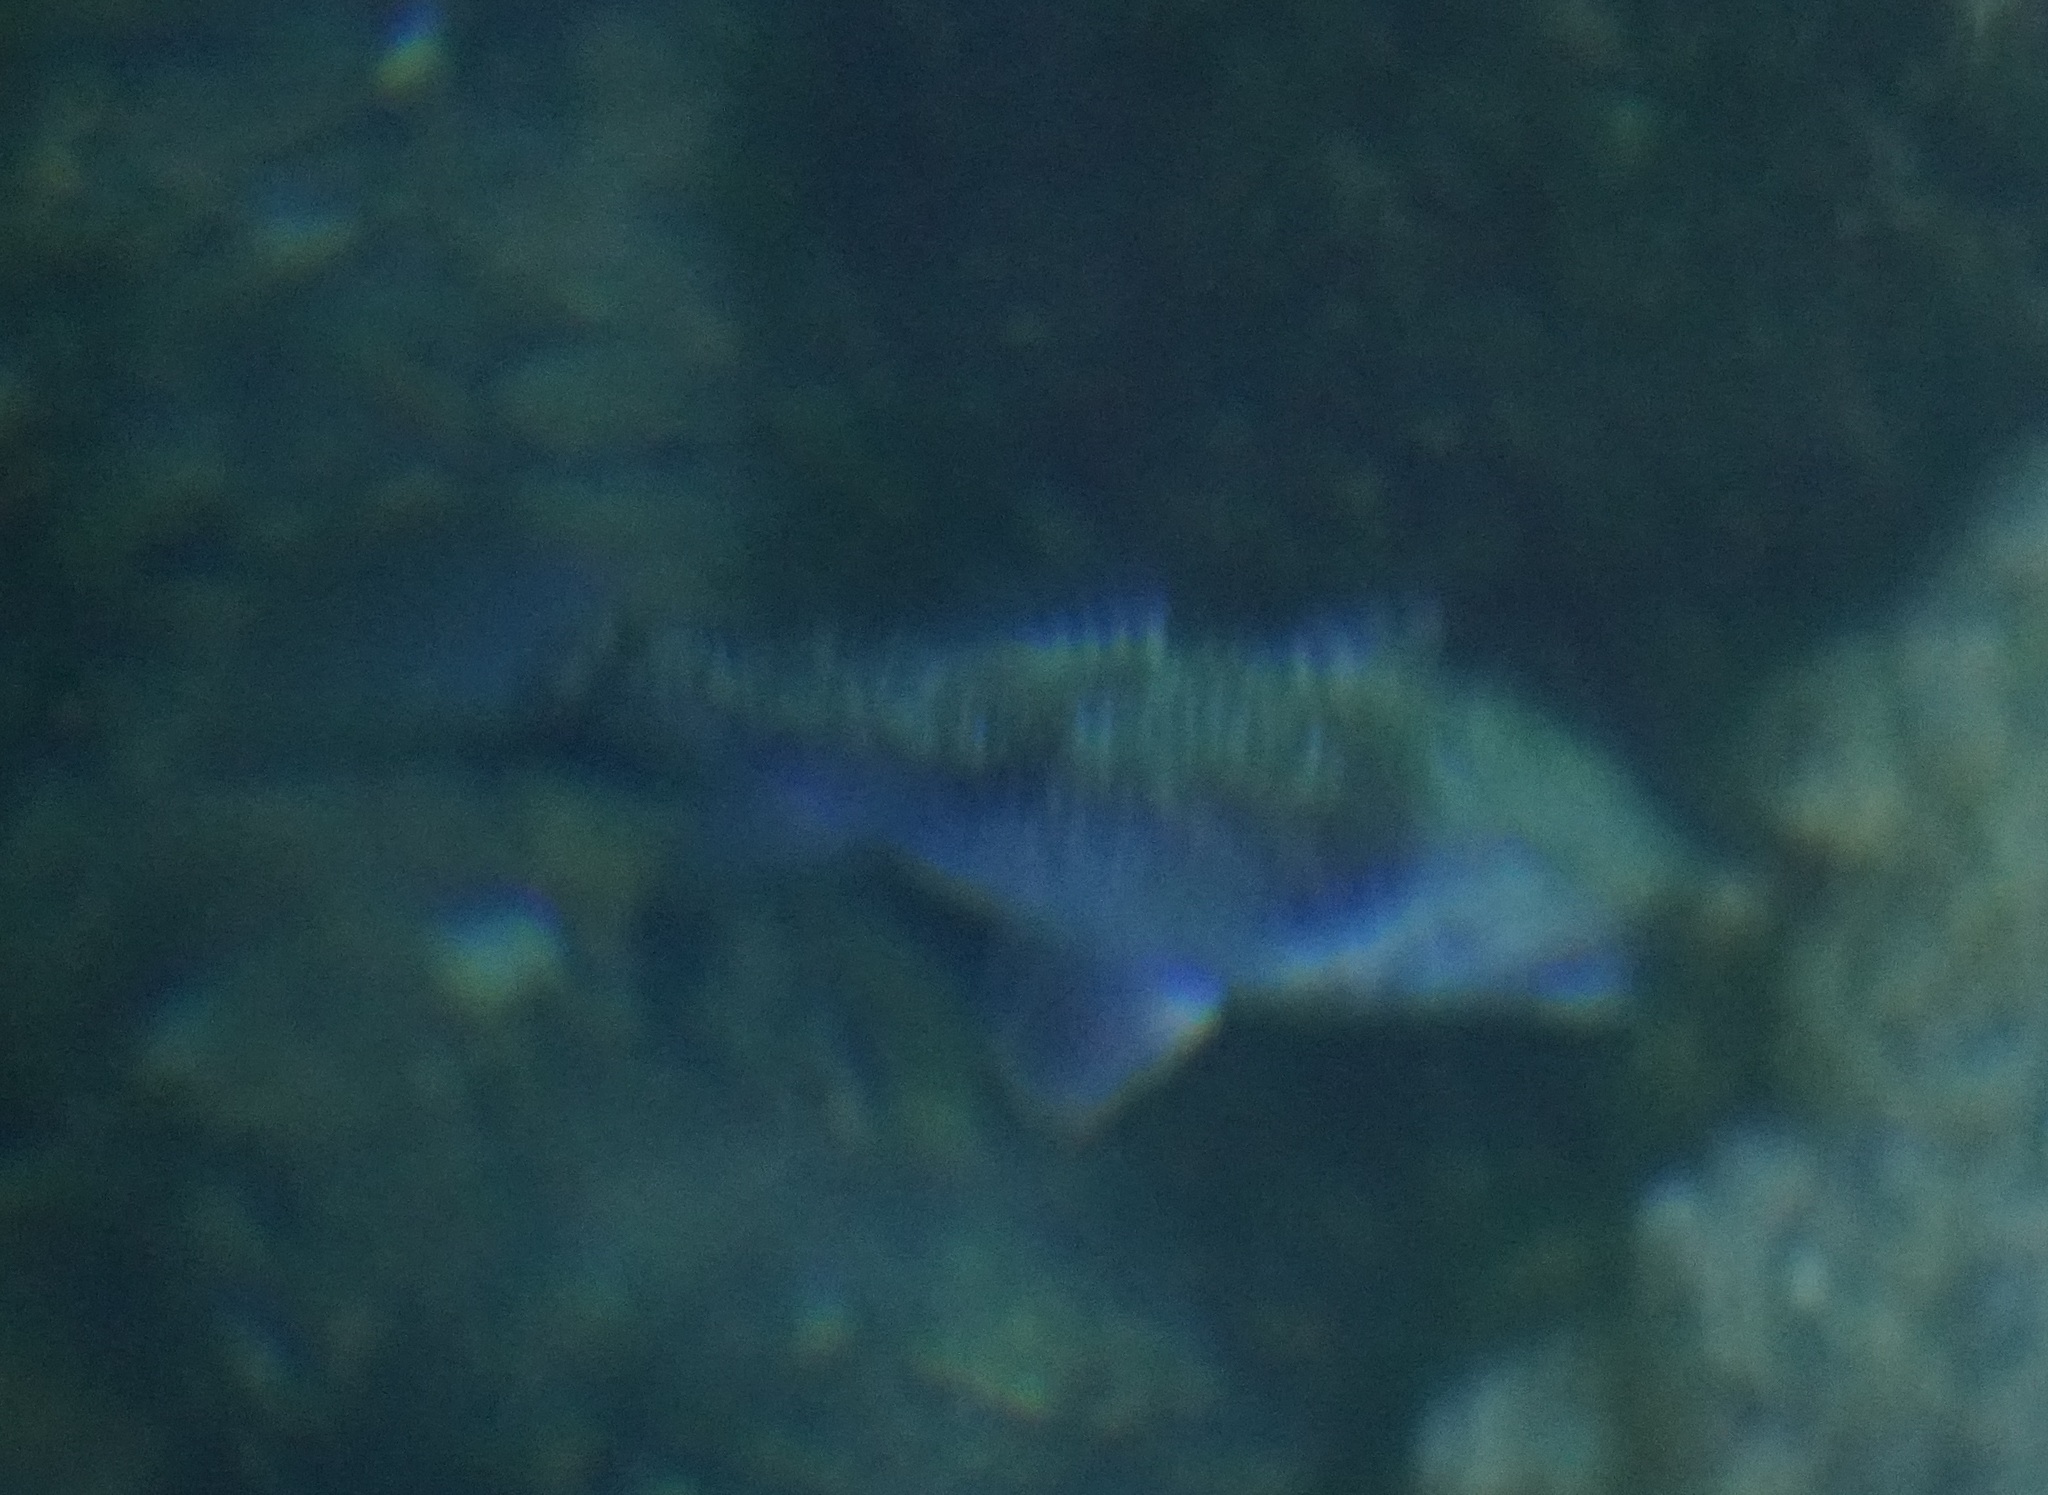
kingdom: Animalia
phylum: Chordata
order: Perciformes
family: Apogonidae
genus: Glossamia
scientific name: Glossamia aprion
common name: Mouth almighty
